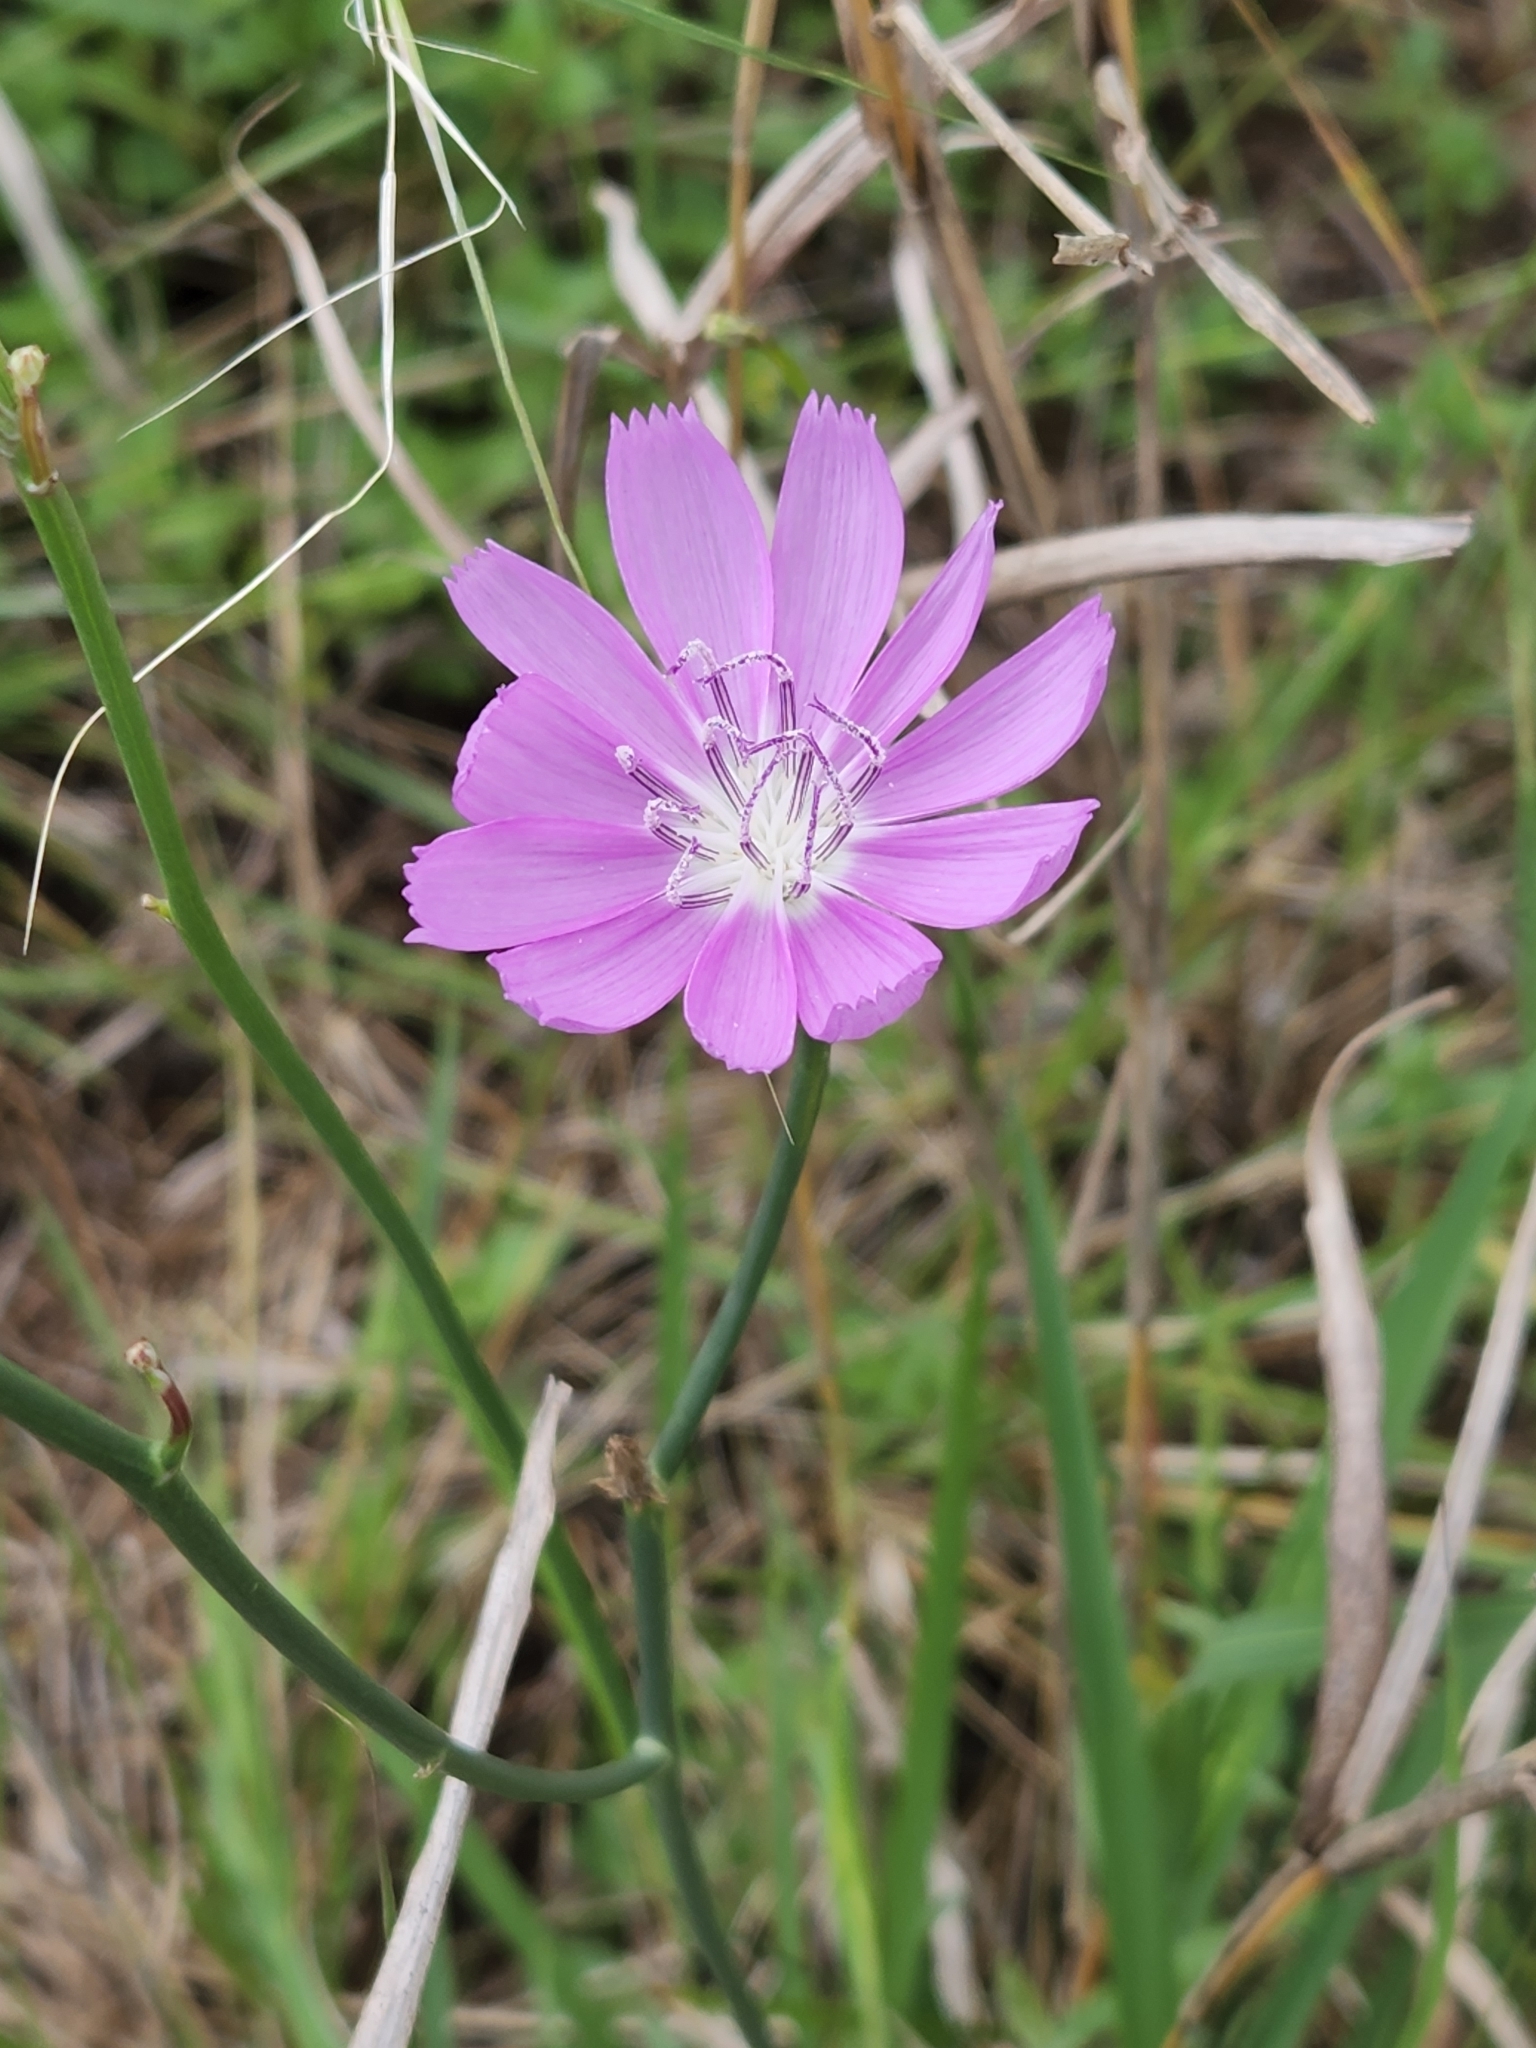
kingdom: Plantae
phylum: Tracheophyta
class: Magnoliopsida
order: Asterales
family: Asteraceae
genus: Lygodesmia
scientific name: Lygodesmia texana
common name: Texas skeleton-plant
